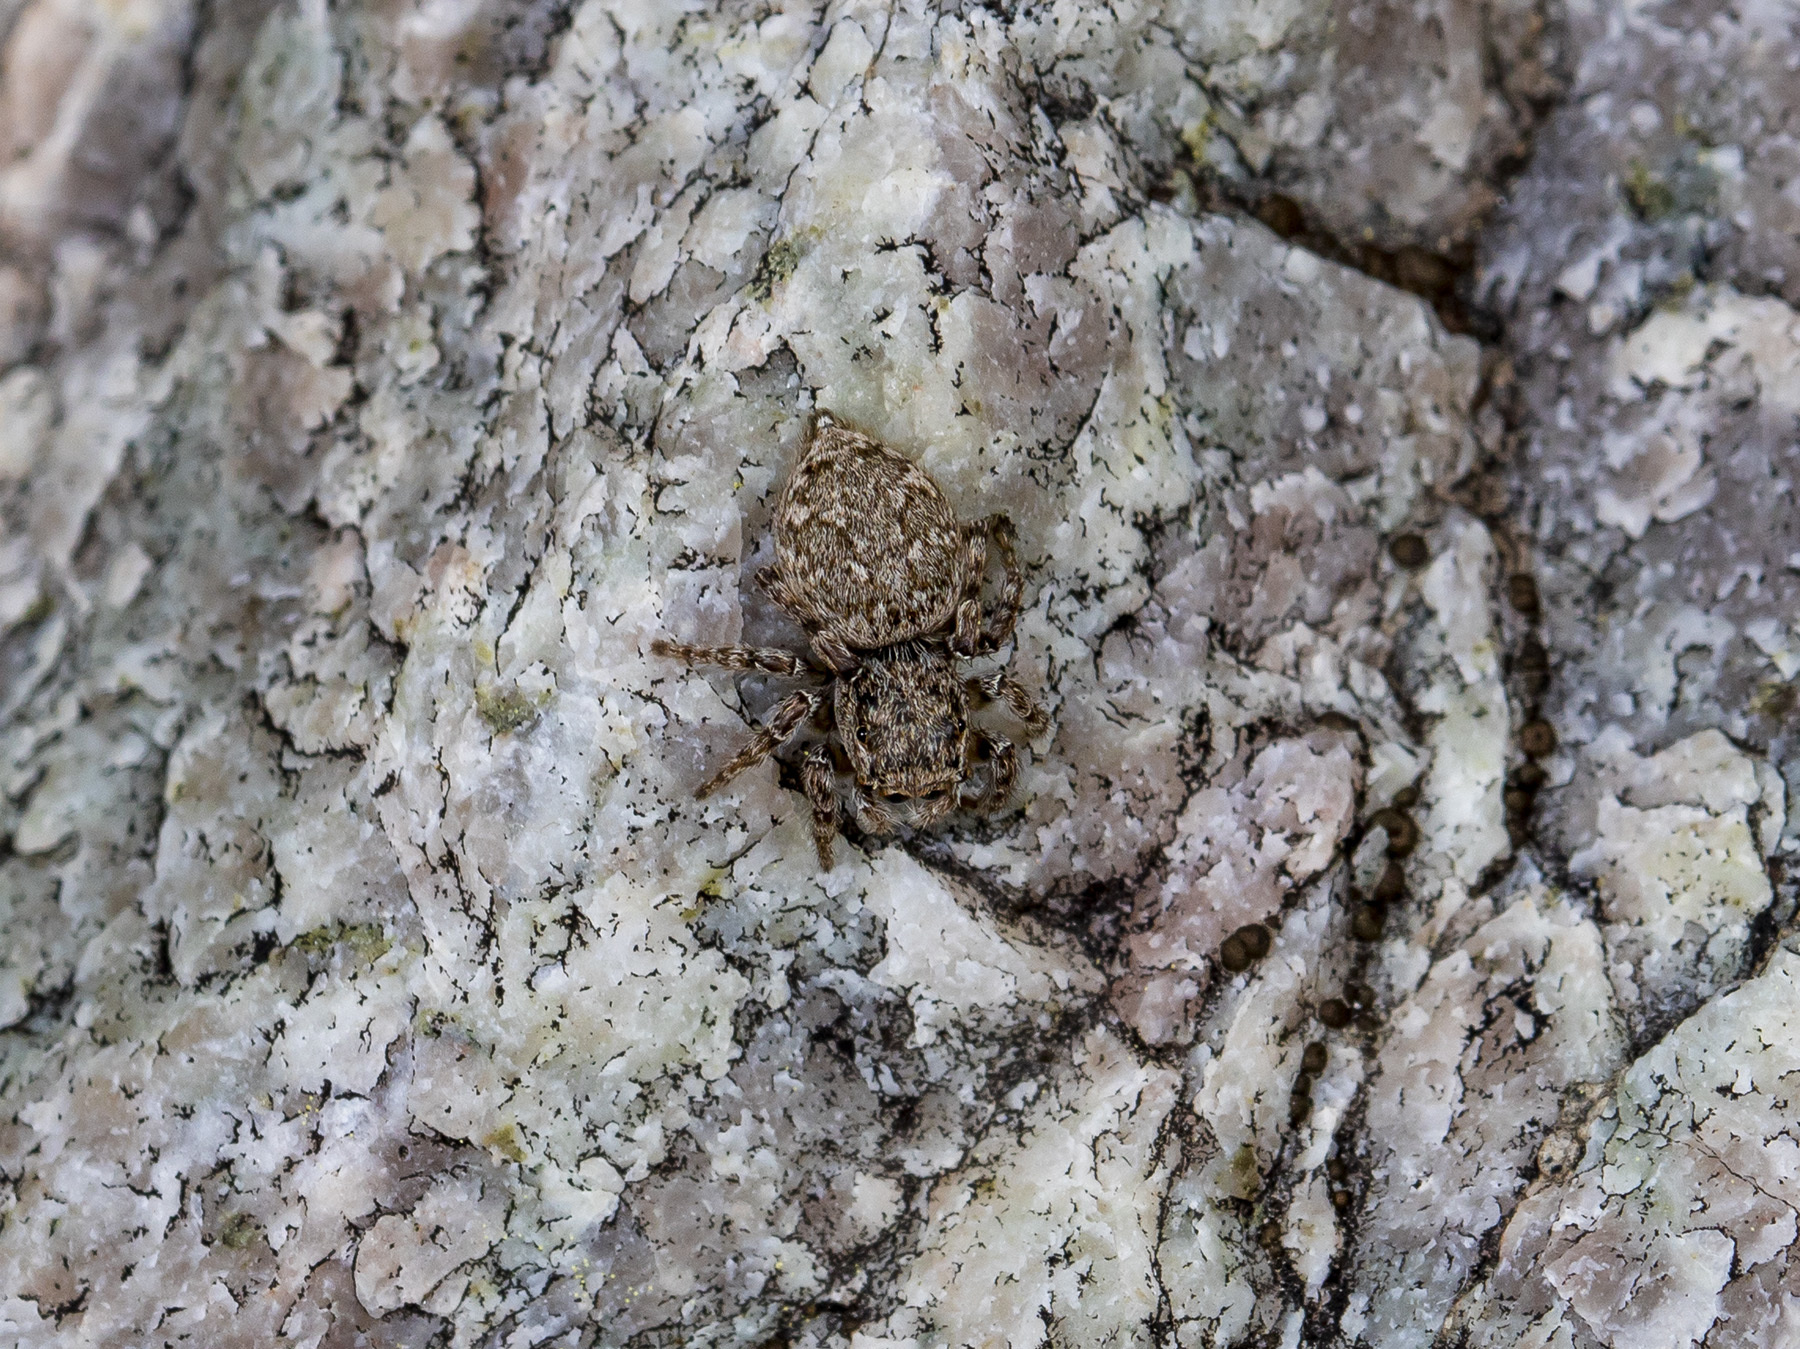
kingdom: Animalia
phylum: Arthropoda
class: Arachnida
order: Araneae
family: Salticidae
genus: Attulus
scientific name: Attulus avocator
